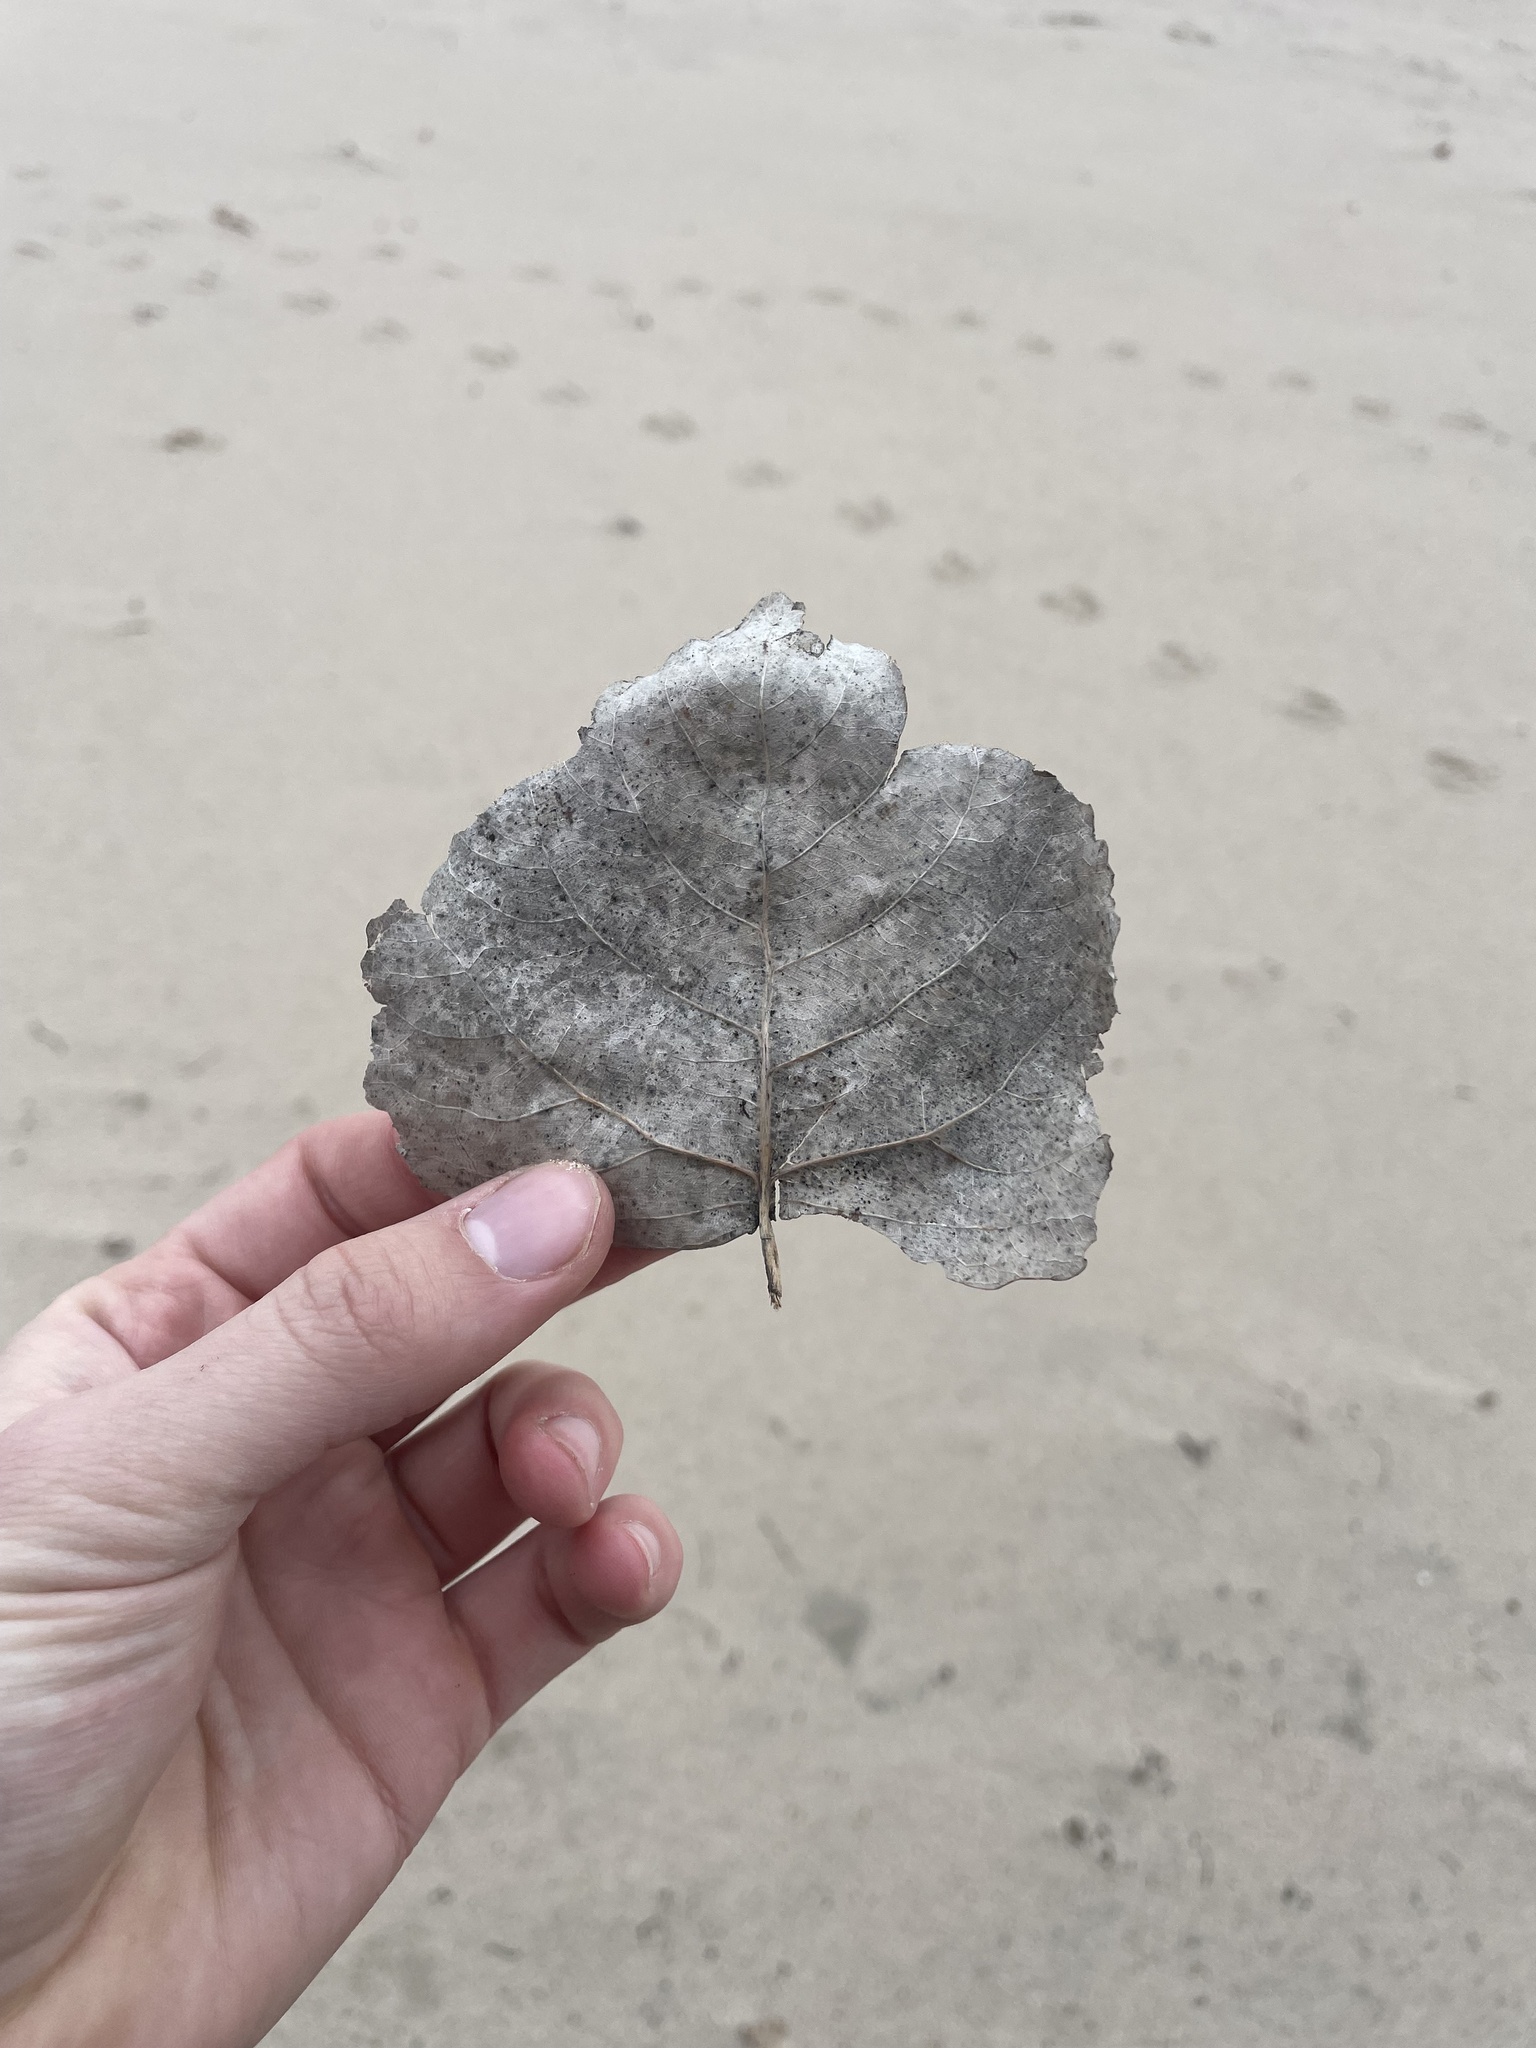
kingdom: Plantae
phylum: Tracheophyta
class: Magnoliopsida
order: Malpighiales
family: Salicaceae
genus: Populus
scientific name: Populus deltoides
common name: Eastern cottonwood
